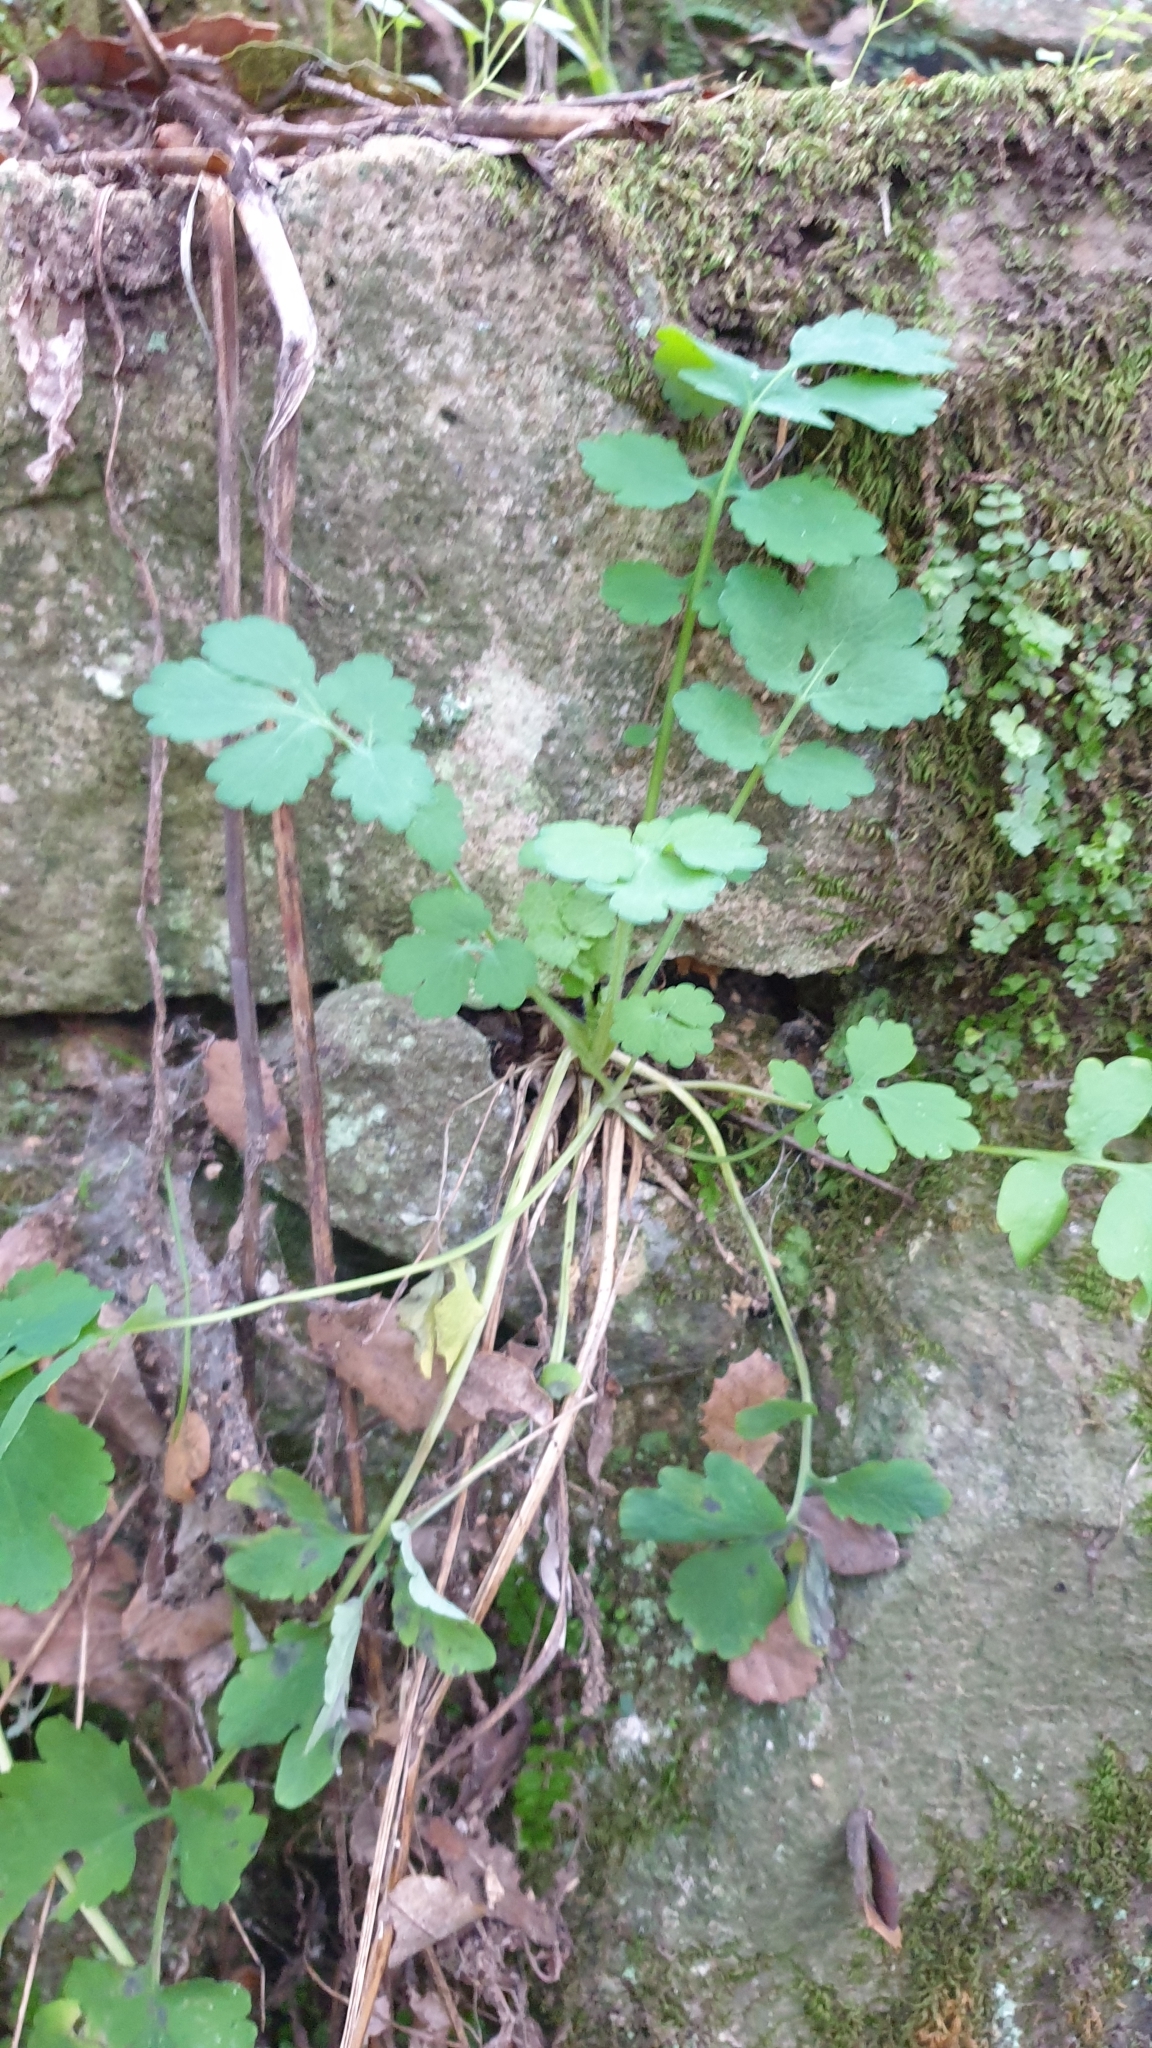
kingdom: Plantae
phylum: Tracheophyta
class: Magnoliopsida
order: Ranunculales
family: Papaveraceae
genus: Chelidonium
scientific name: Chelidonium majus
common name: Greater celandine
